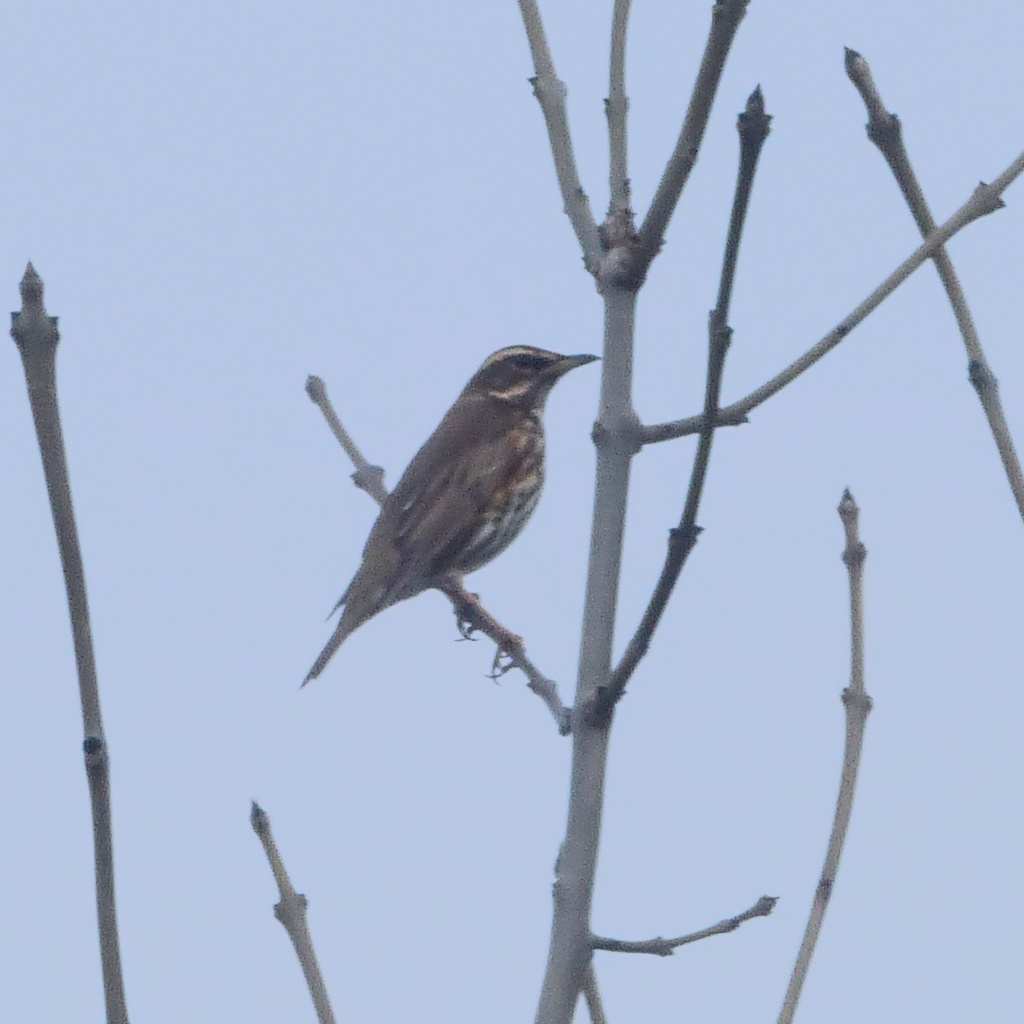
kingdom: Animalia
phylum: Chordata
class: Aves
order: Passeriformes
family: Turdidae
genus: Turdus
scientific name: Turdus iliacus
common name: Redwing
